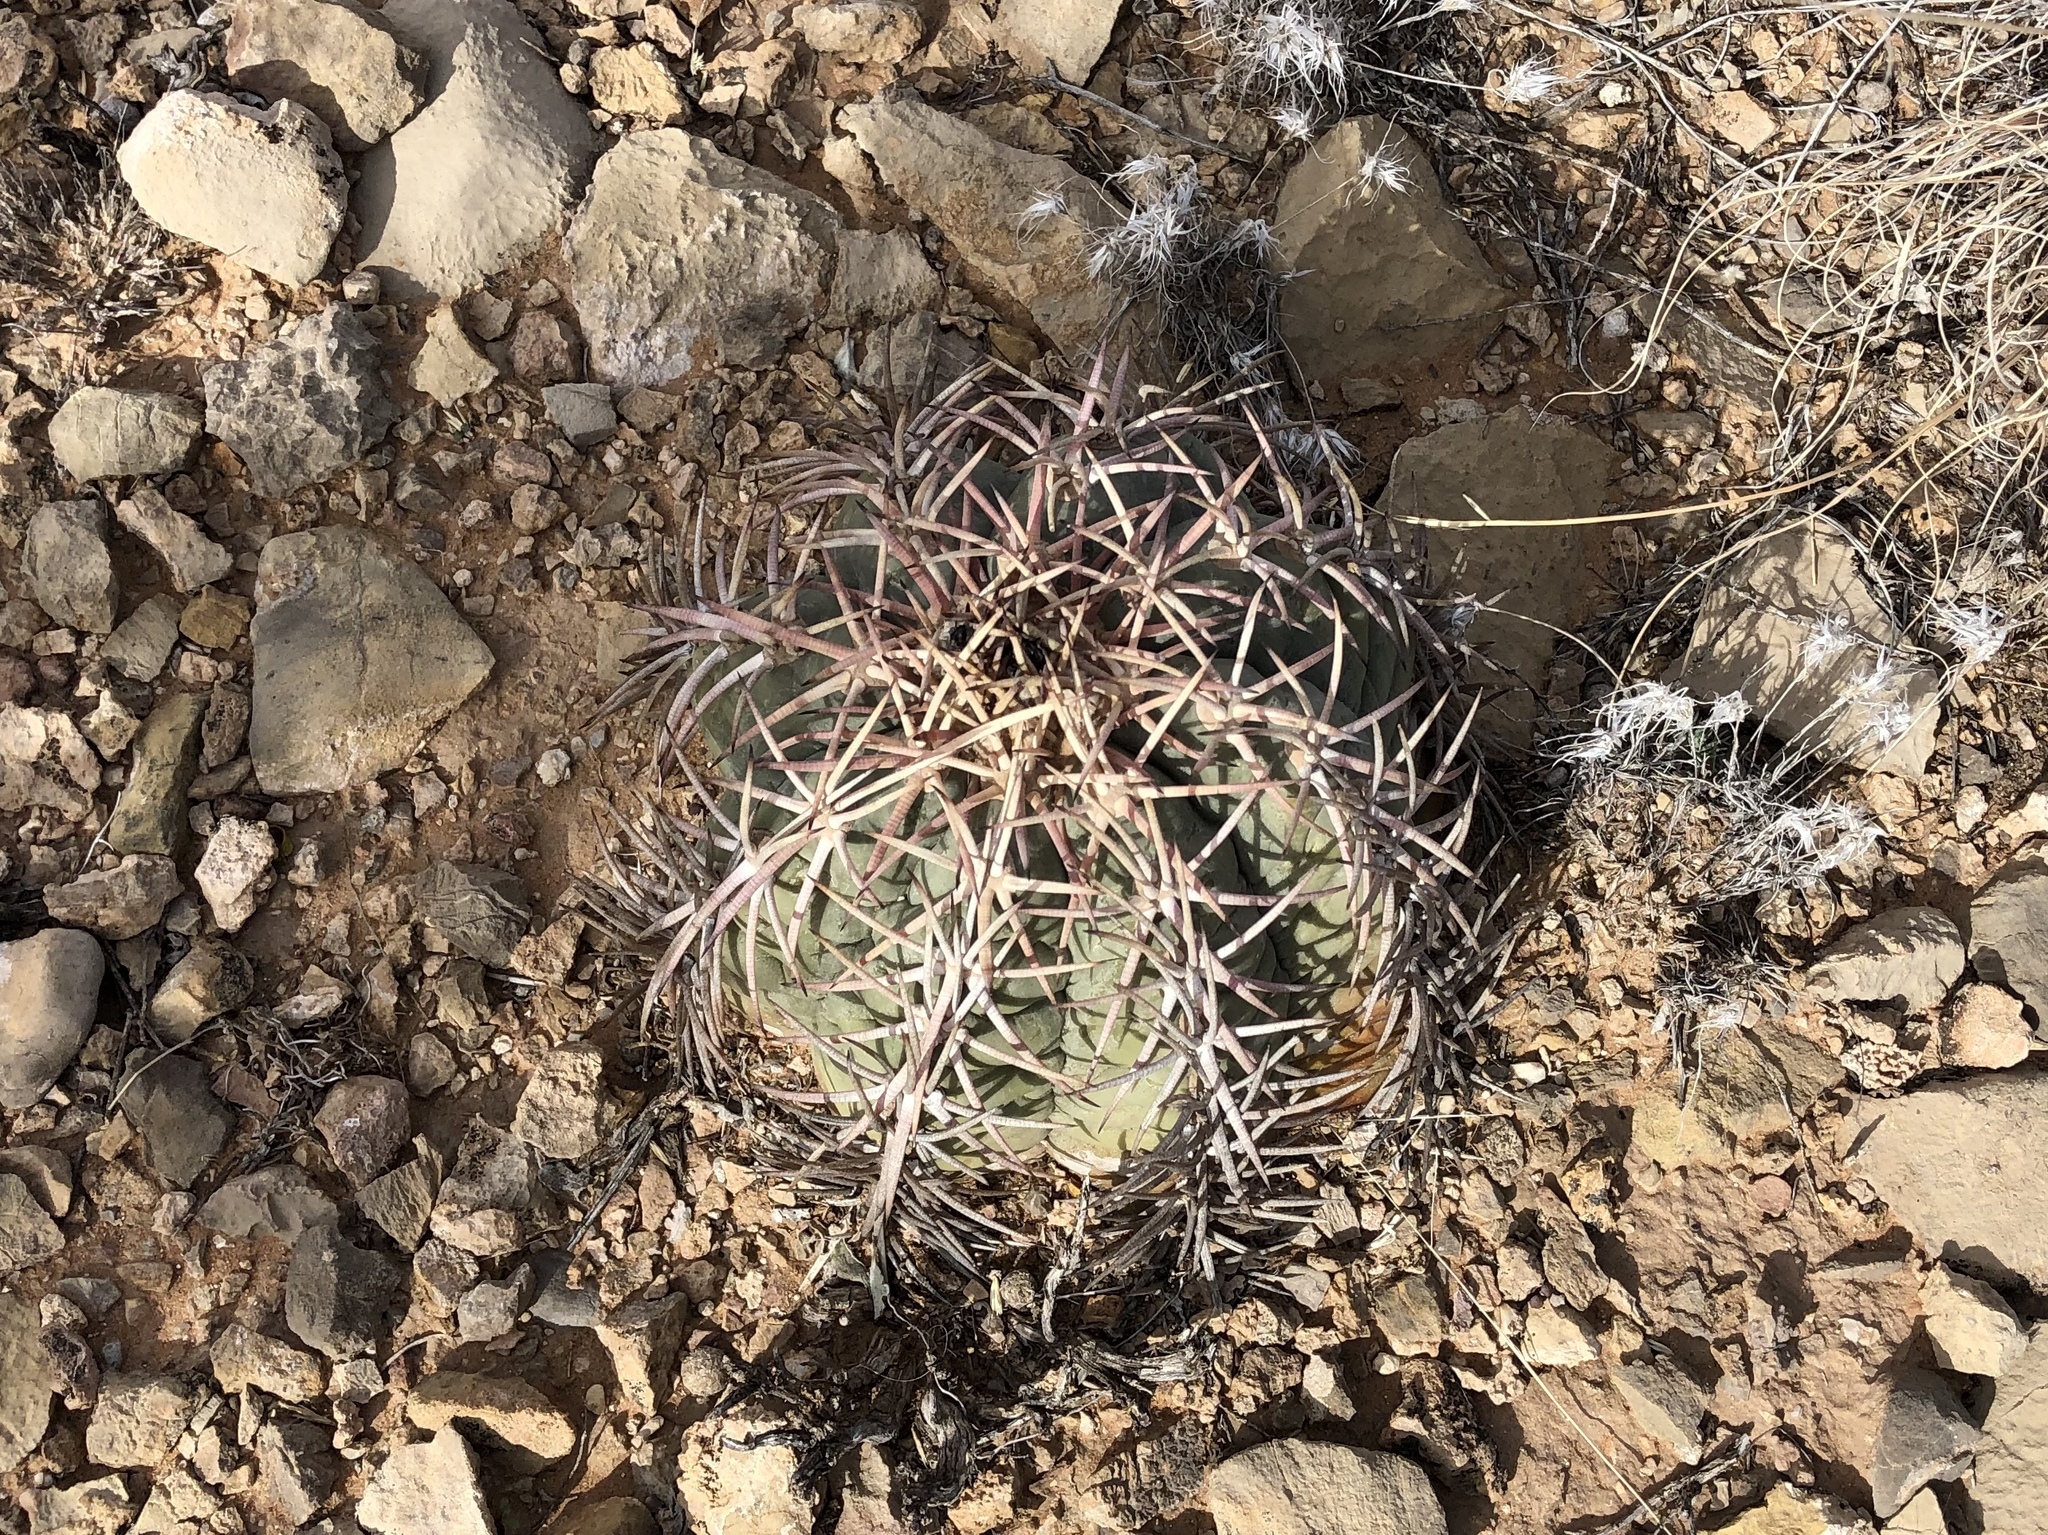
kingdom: Plantae
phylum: Tracheophyta
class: Magnoliopsida
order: Caryophyllales
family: Cactaceae
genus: Echinocactus
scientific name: Echinocactus horizonthalonius
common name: Devilshead
